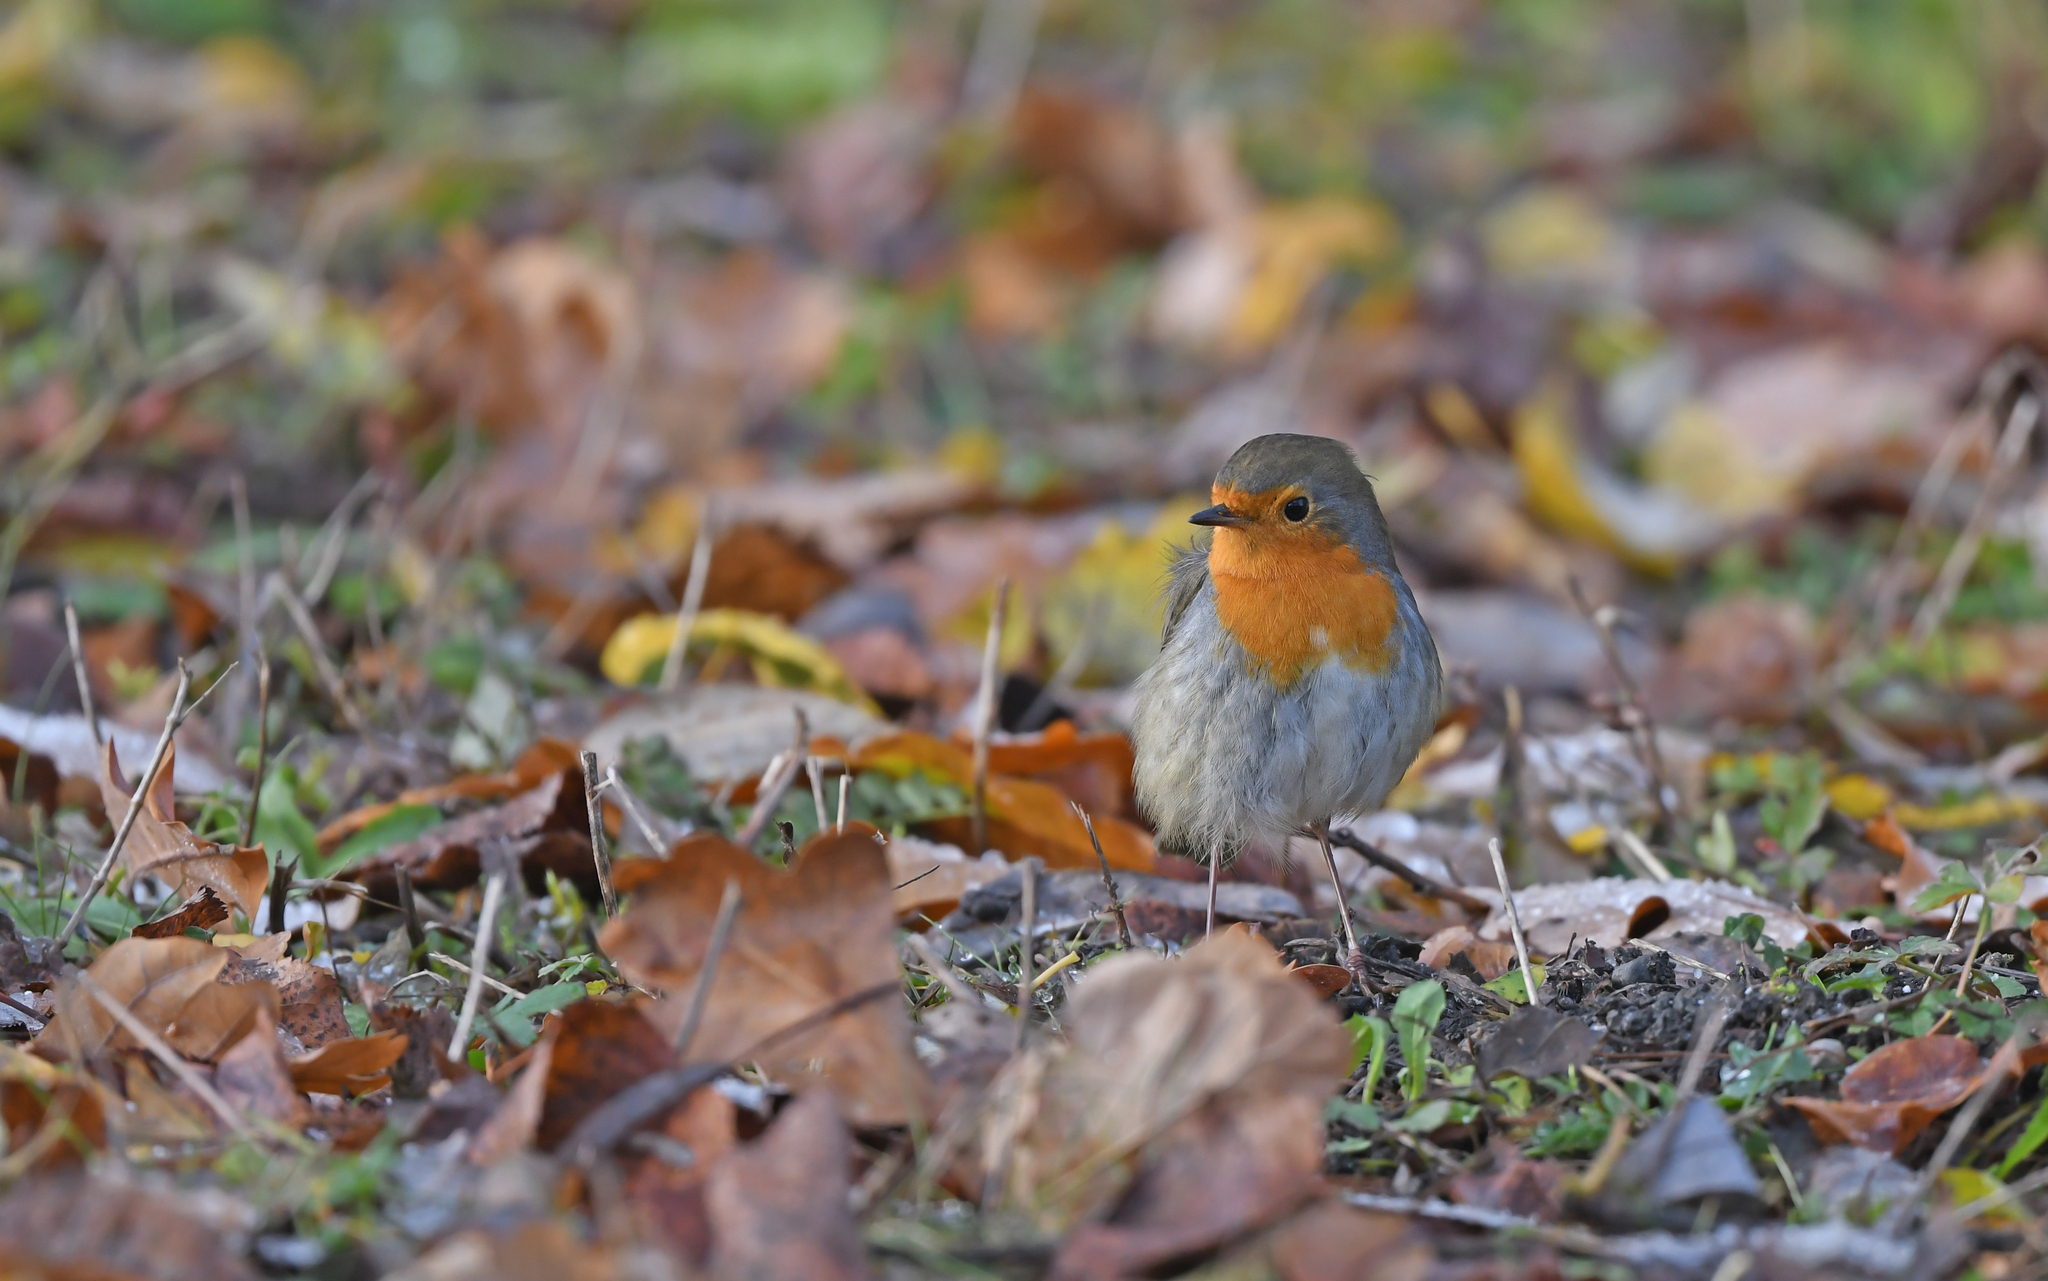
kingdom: Animalia
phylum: Chordata
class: Aves
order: Passeriformes
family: Muscicapidae
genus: Erithacus
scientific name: Erithacus rubecula
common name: European robin
